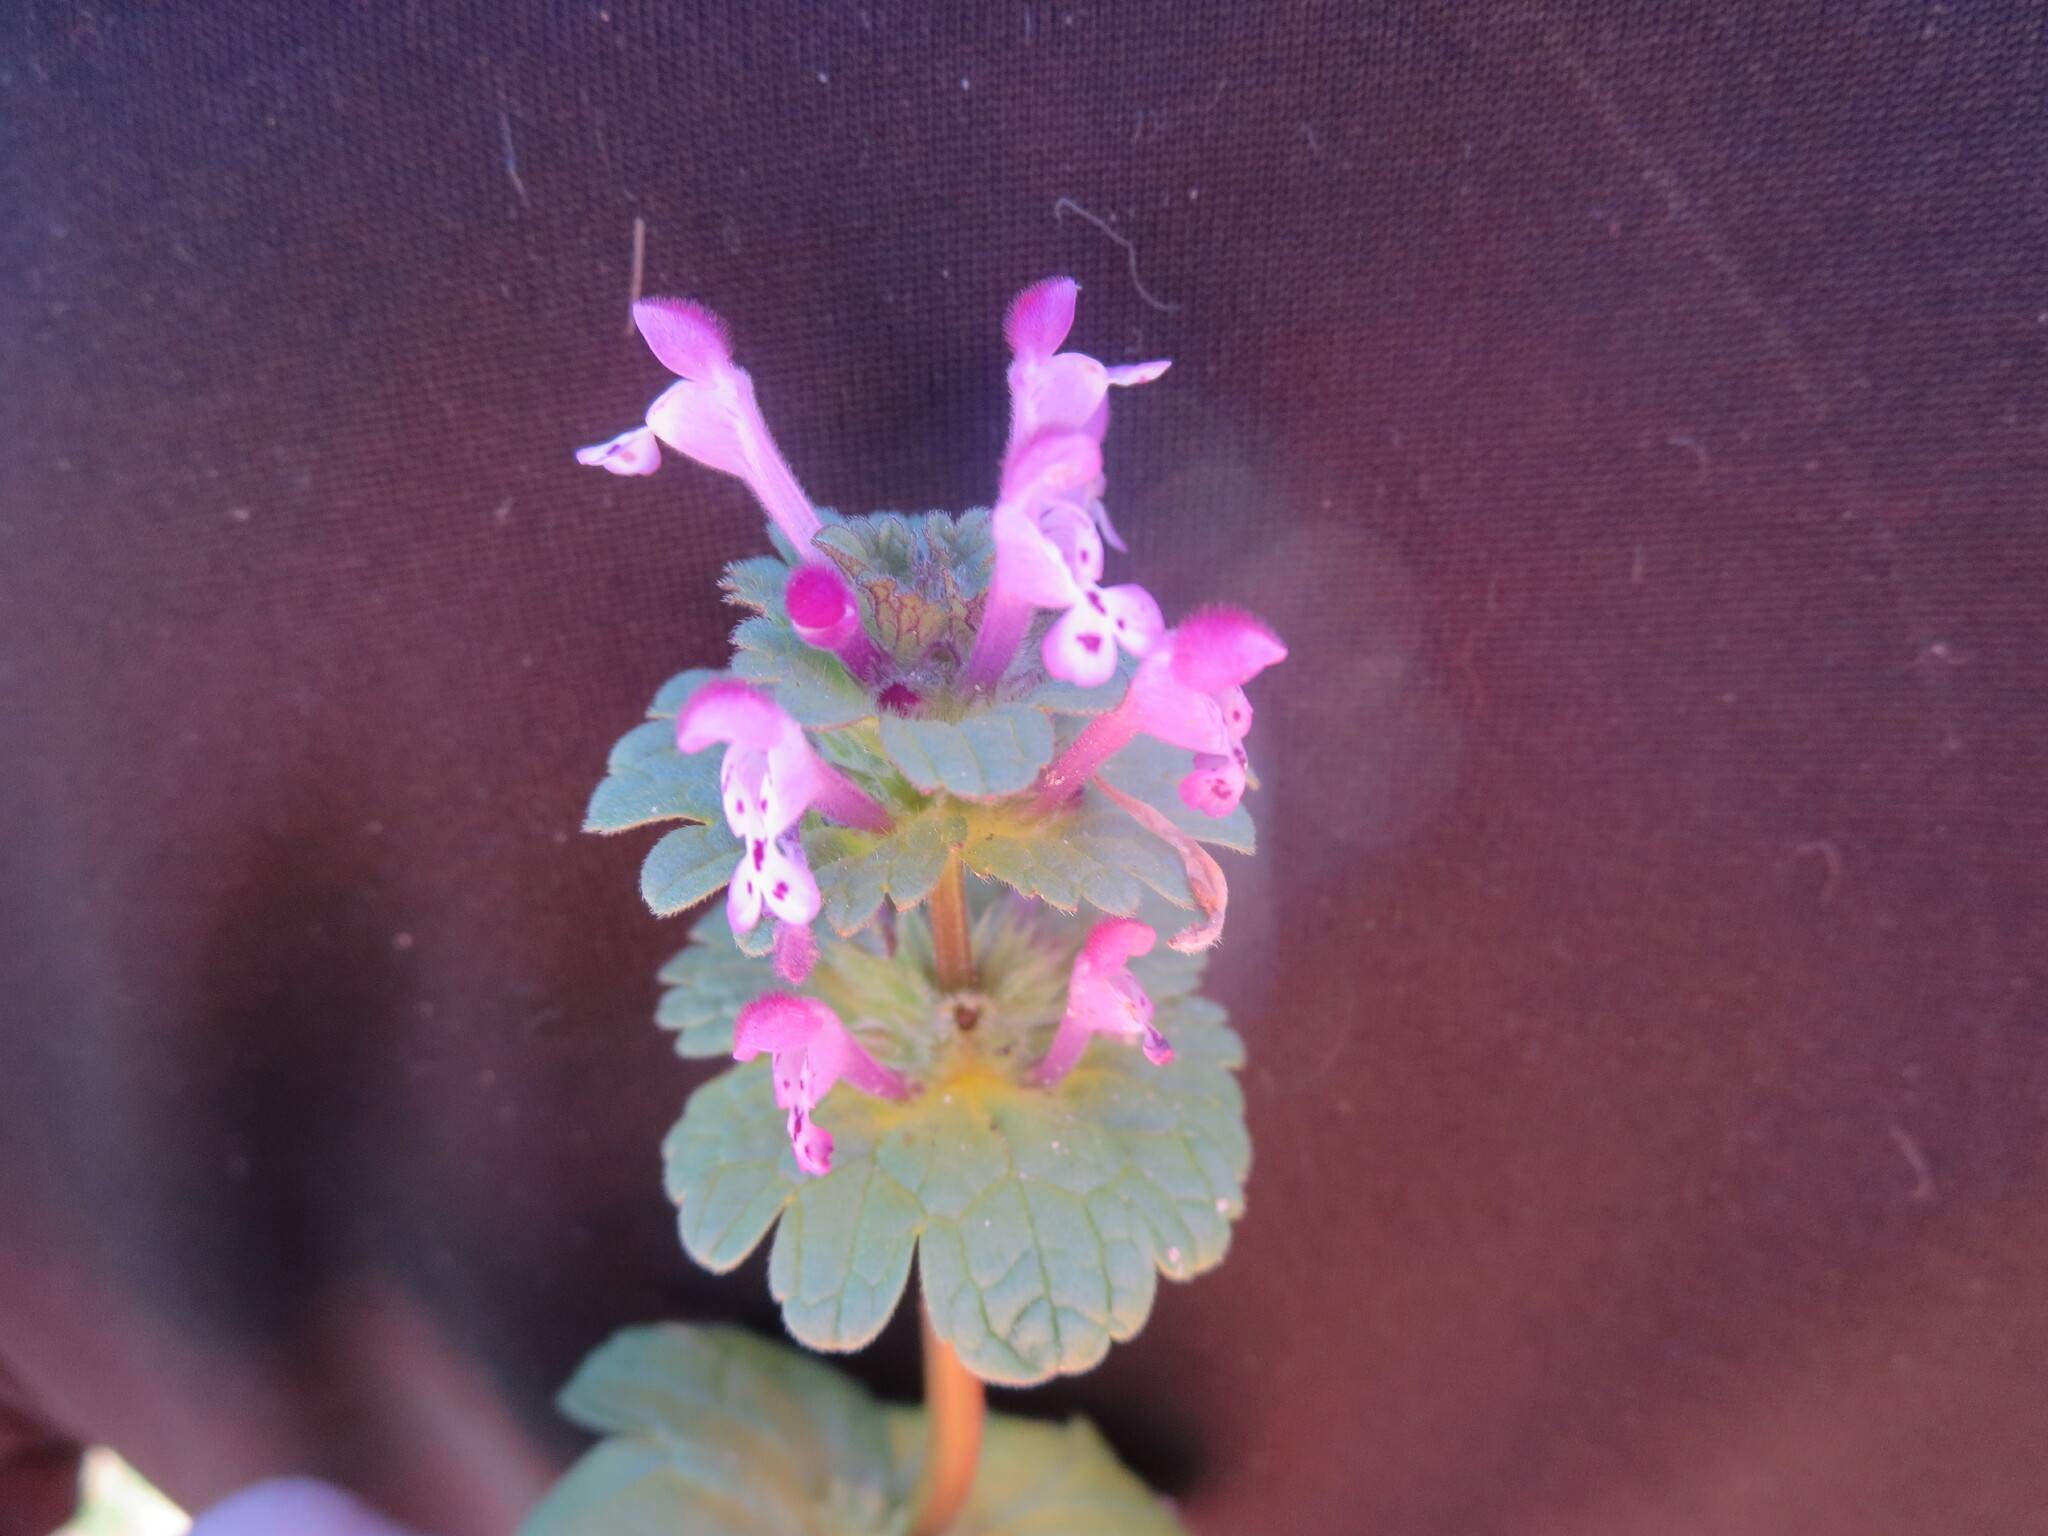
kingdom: Plantae
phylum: Tracheophyta
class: Magnoliopsida
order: Lamiales
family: Lamiaceae
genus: Lamium
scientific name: Lamium amplexicaule
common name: Henbit dead-nettle
